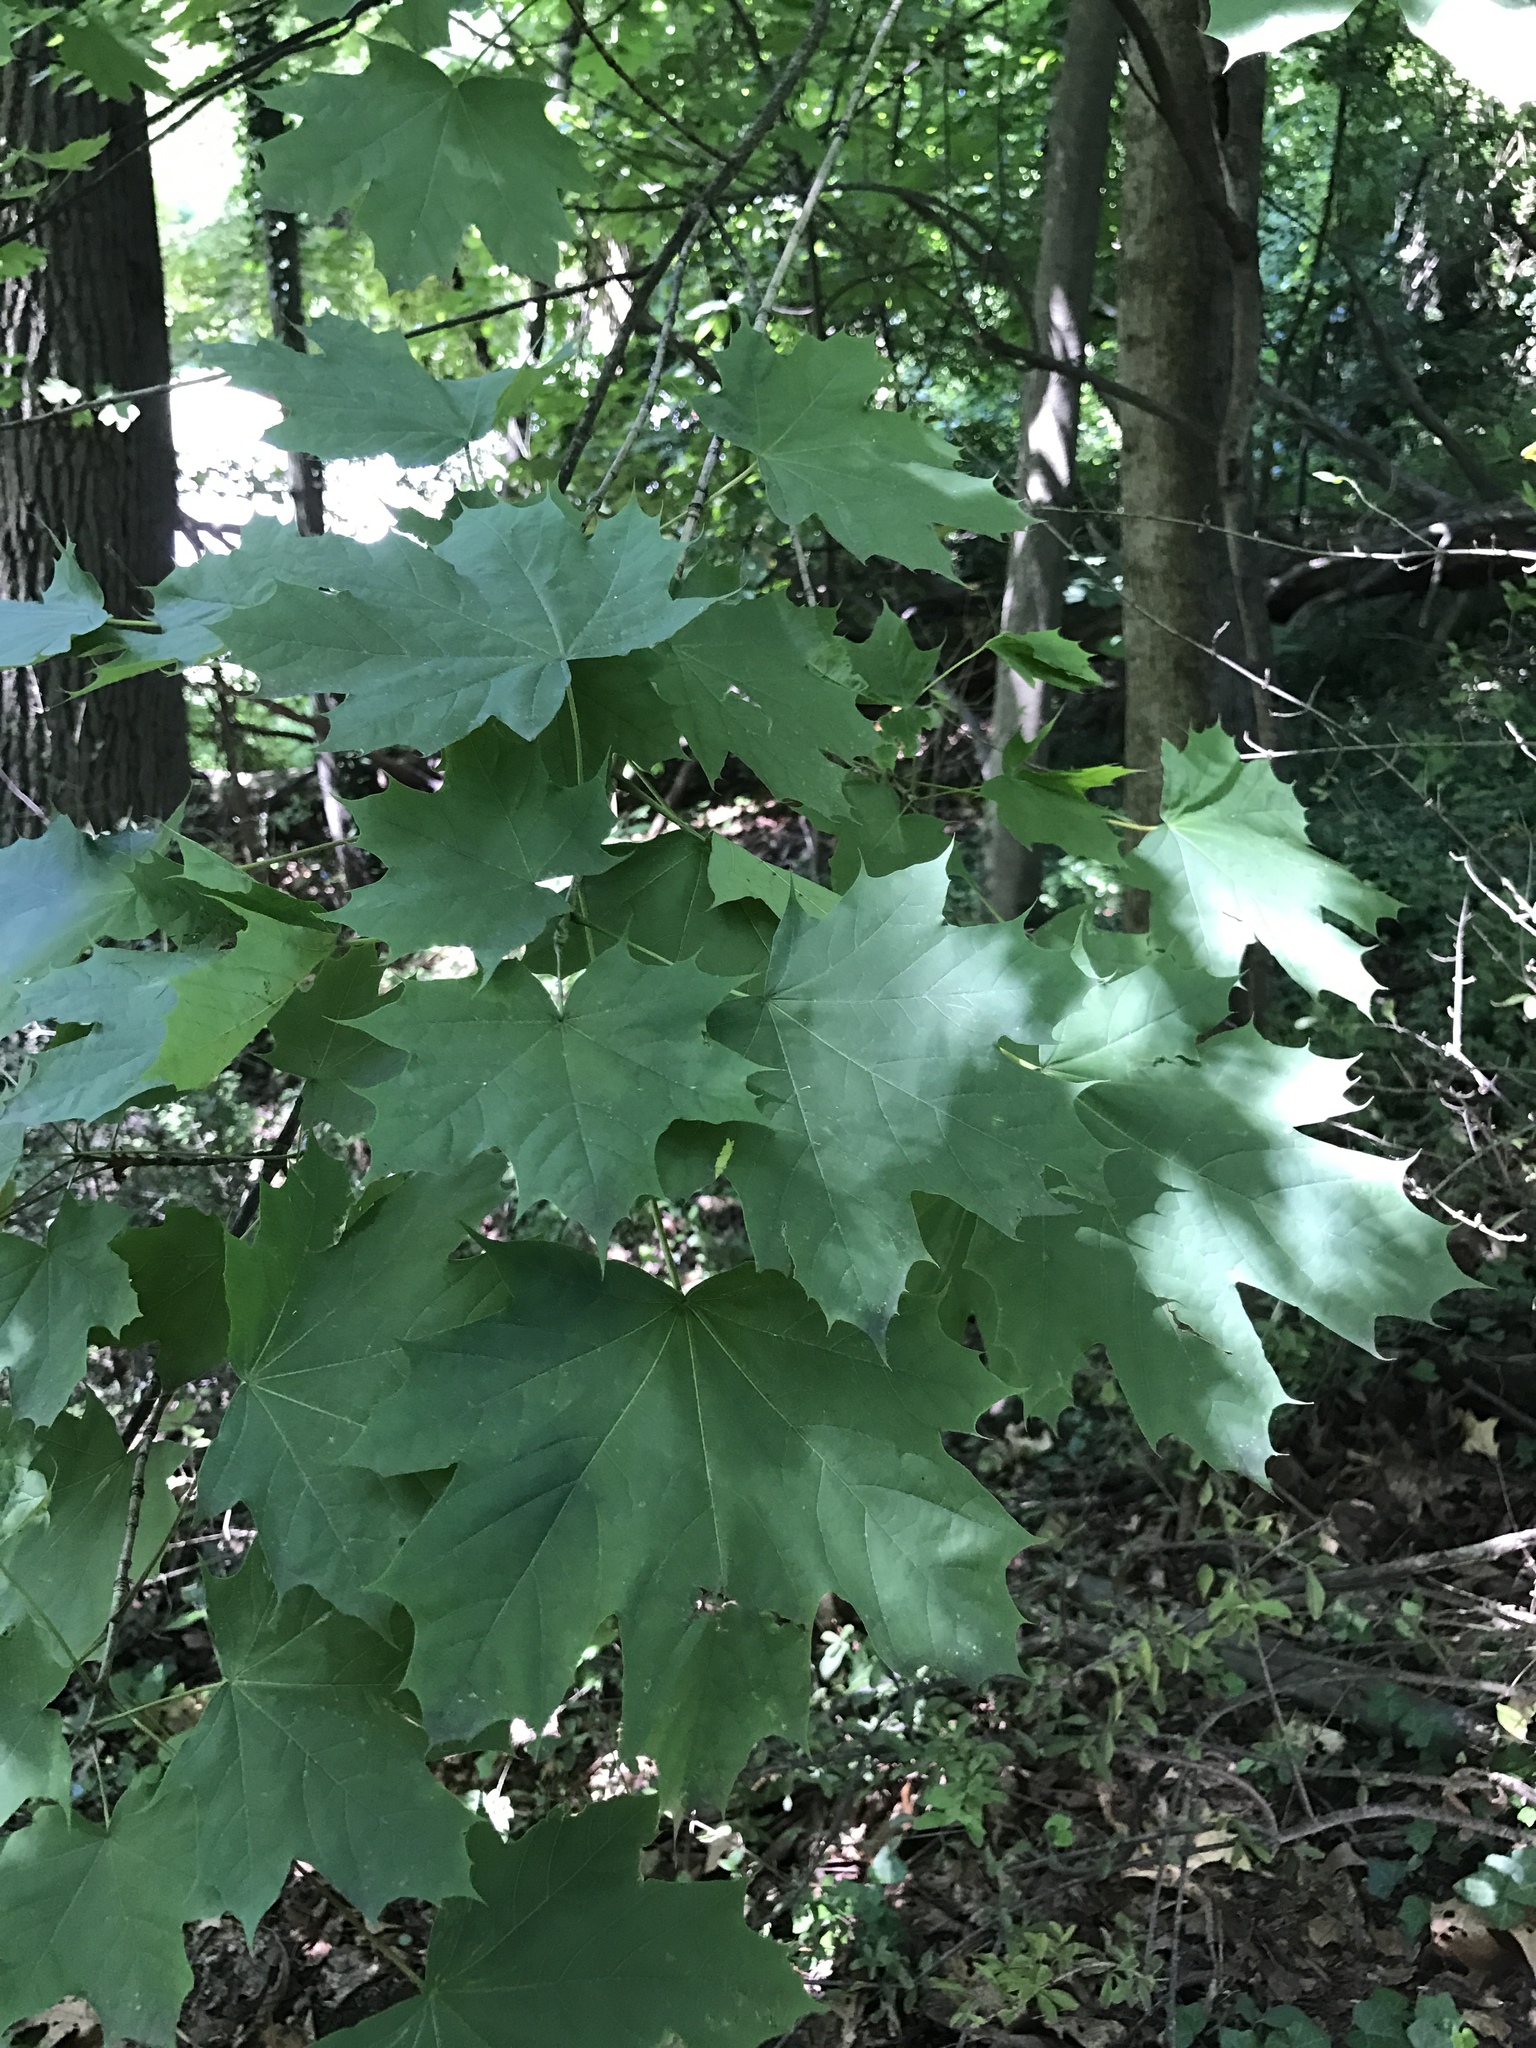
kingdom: Plantae
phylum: Tracheophyta
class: Magnoliopsida
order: Sapindales
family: Sapindaceae
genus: Acer
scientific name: Acer platanoides
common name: Norway maple
